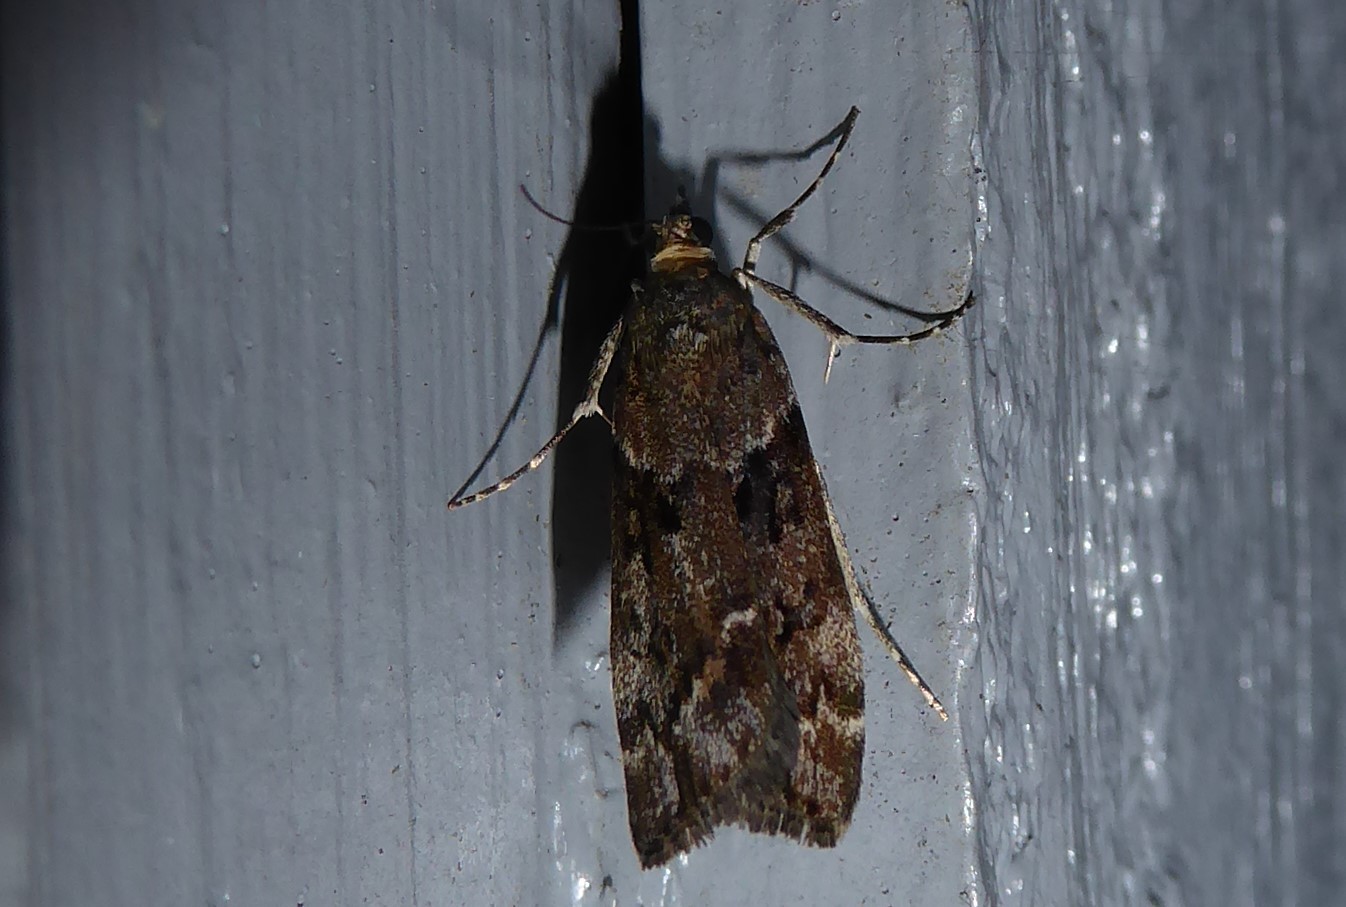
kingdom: Animalia
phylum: Arthropoda
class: Insecta
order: Lepidoptera
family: Crambidae
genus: Eudonia
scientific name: Eudonia submarginalis
